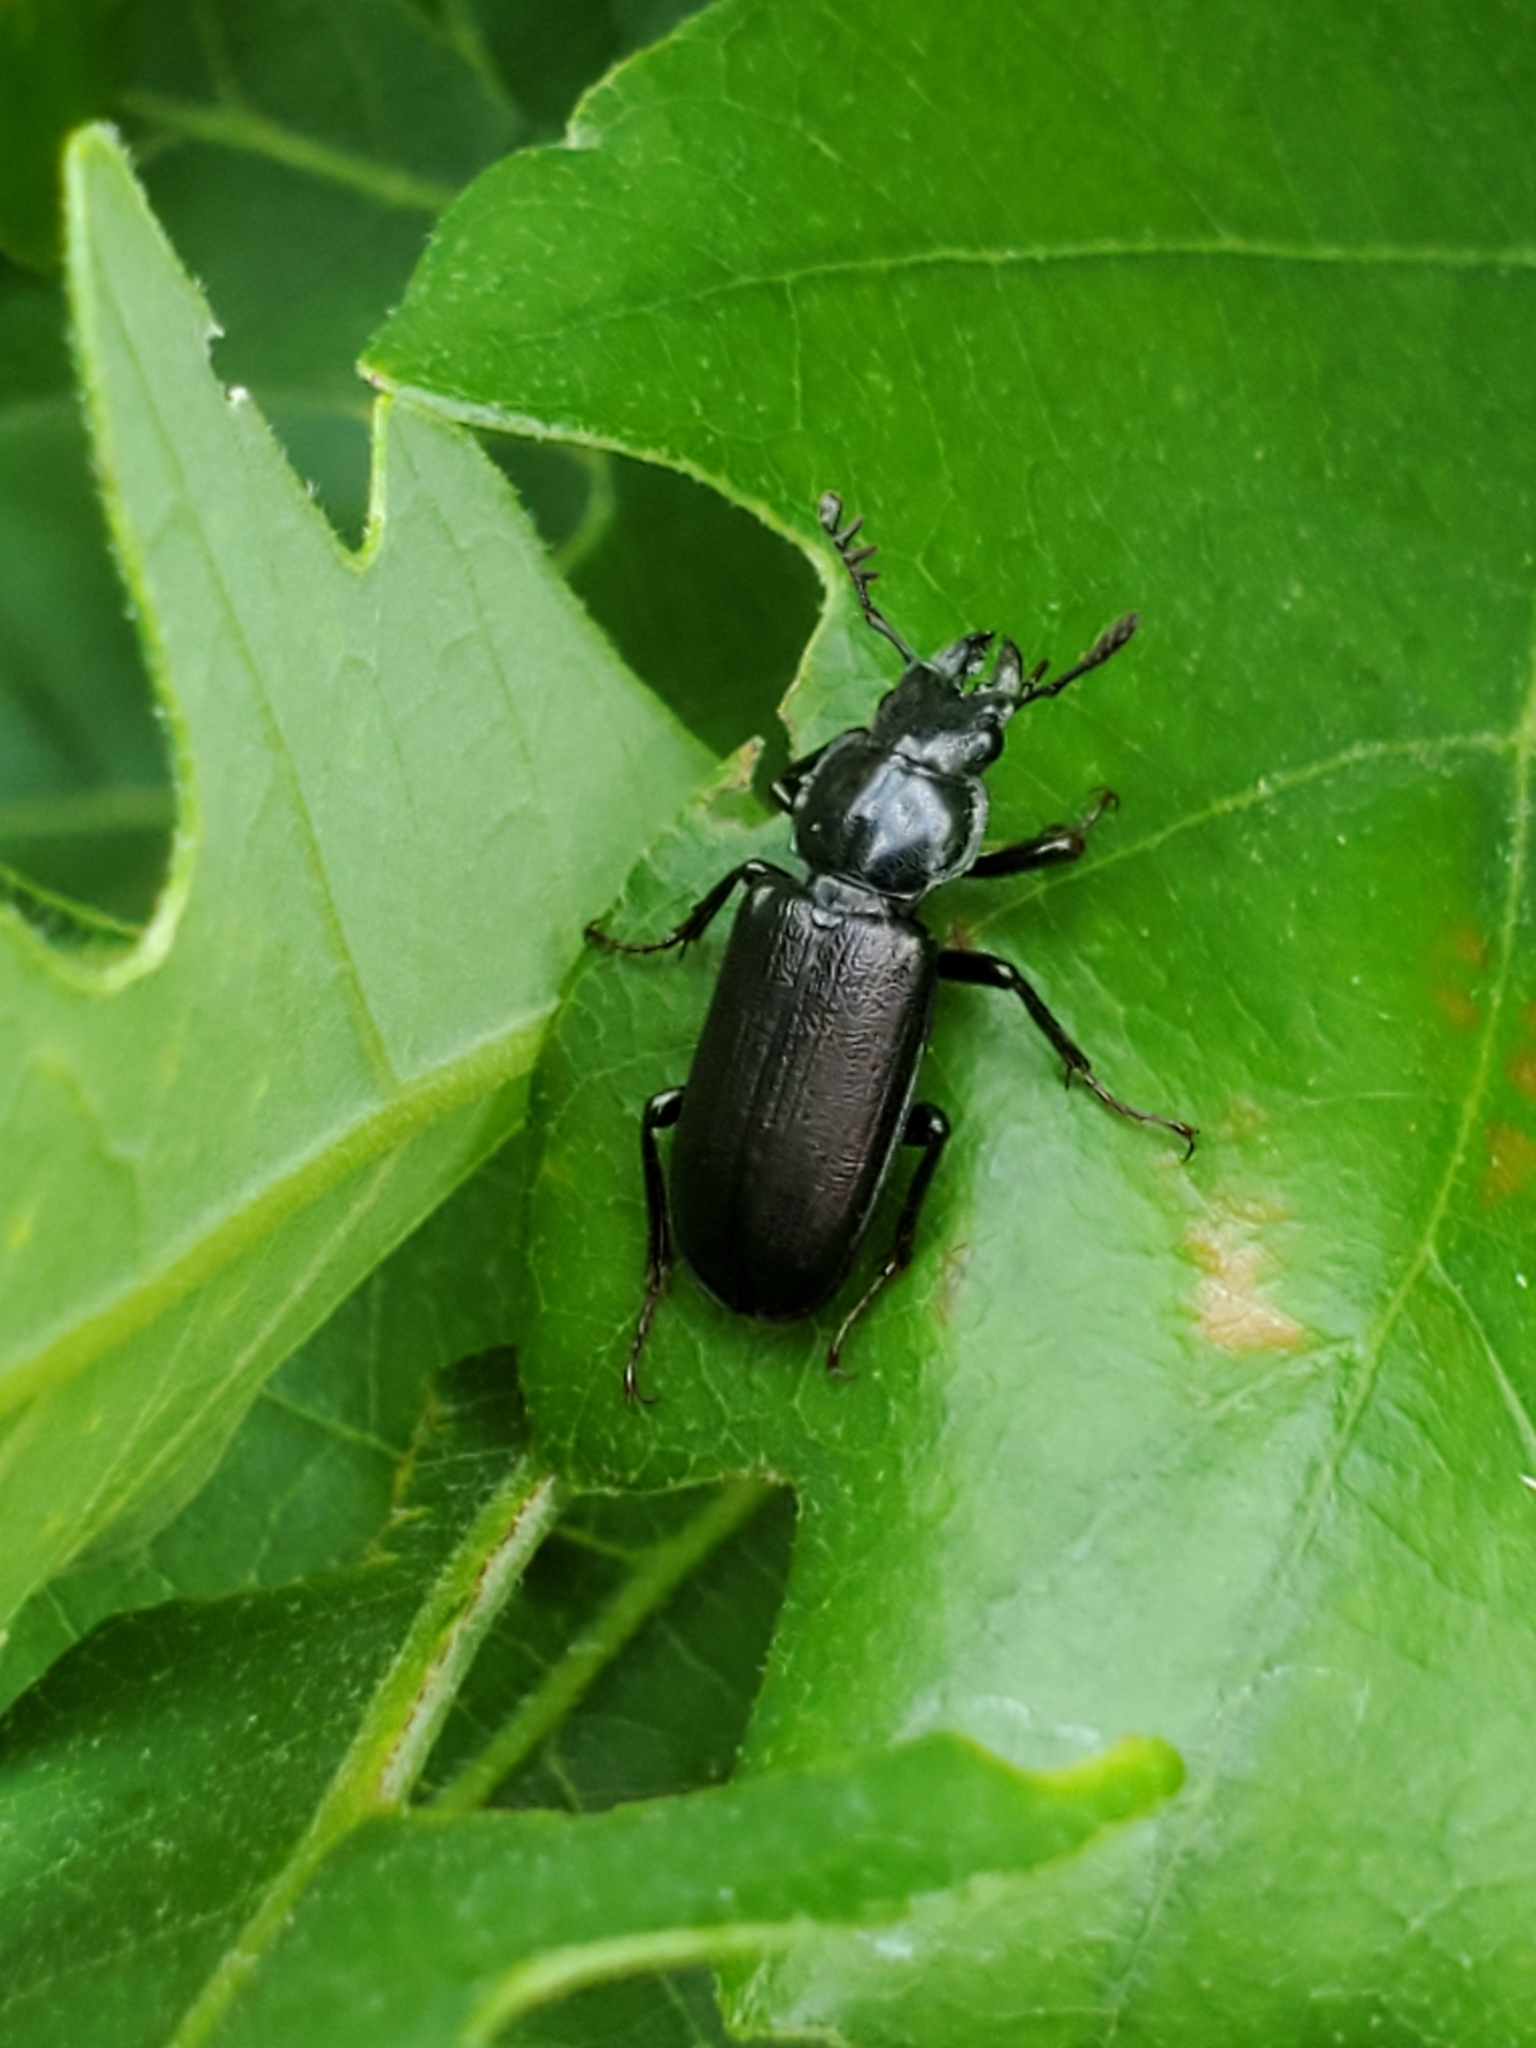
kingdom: Animalia
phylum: Arthropoda
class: Insecta
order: Coleoptera
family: Lucanidae
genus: Platycerus
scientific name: Platycerus depressus
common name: Aspen stag beetle
